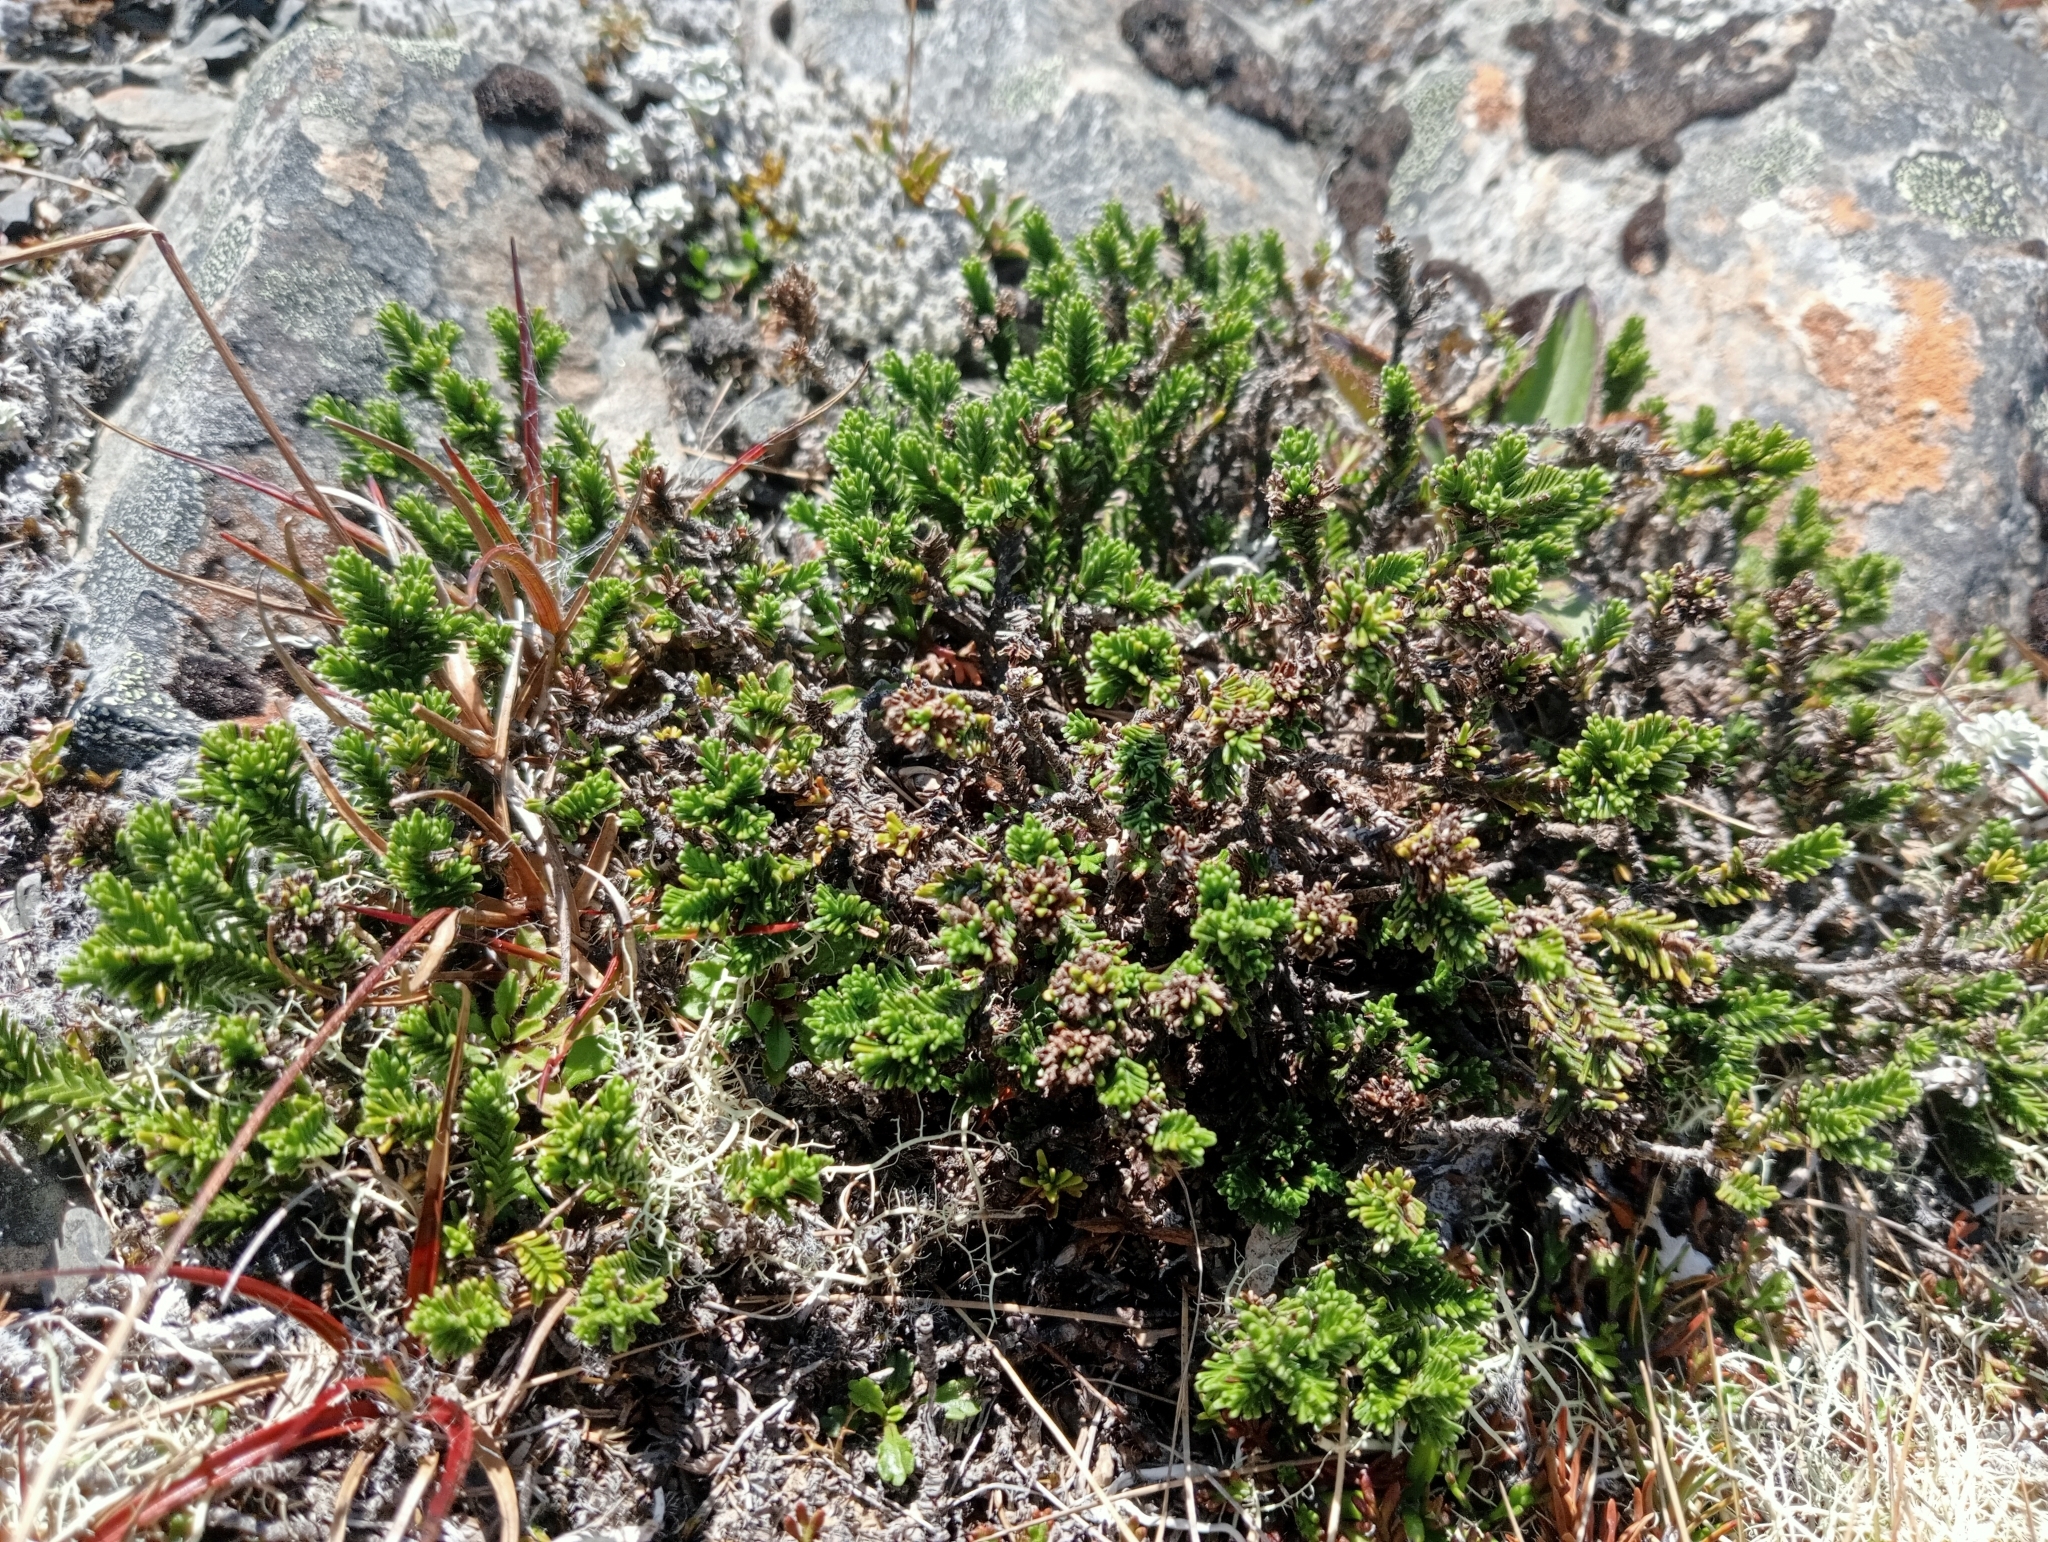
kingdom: Plantae
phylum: Tracheophyta
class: Magnoliopsida
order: Lamiales
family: Plantaginaceae
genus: Veronica
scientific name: Veronica hookeri
